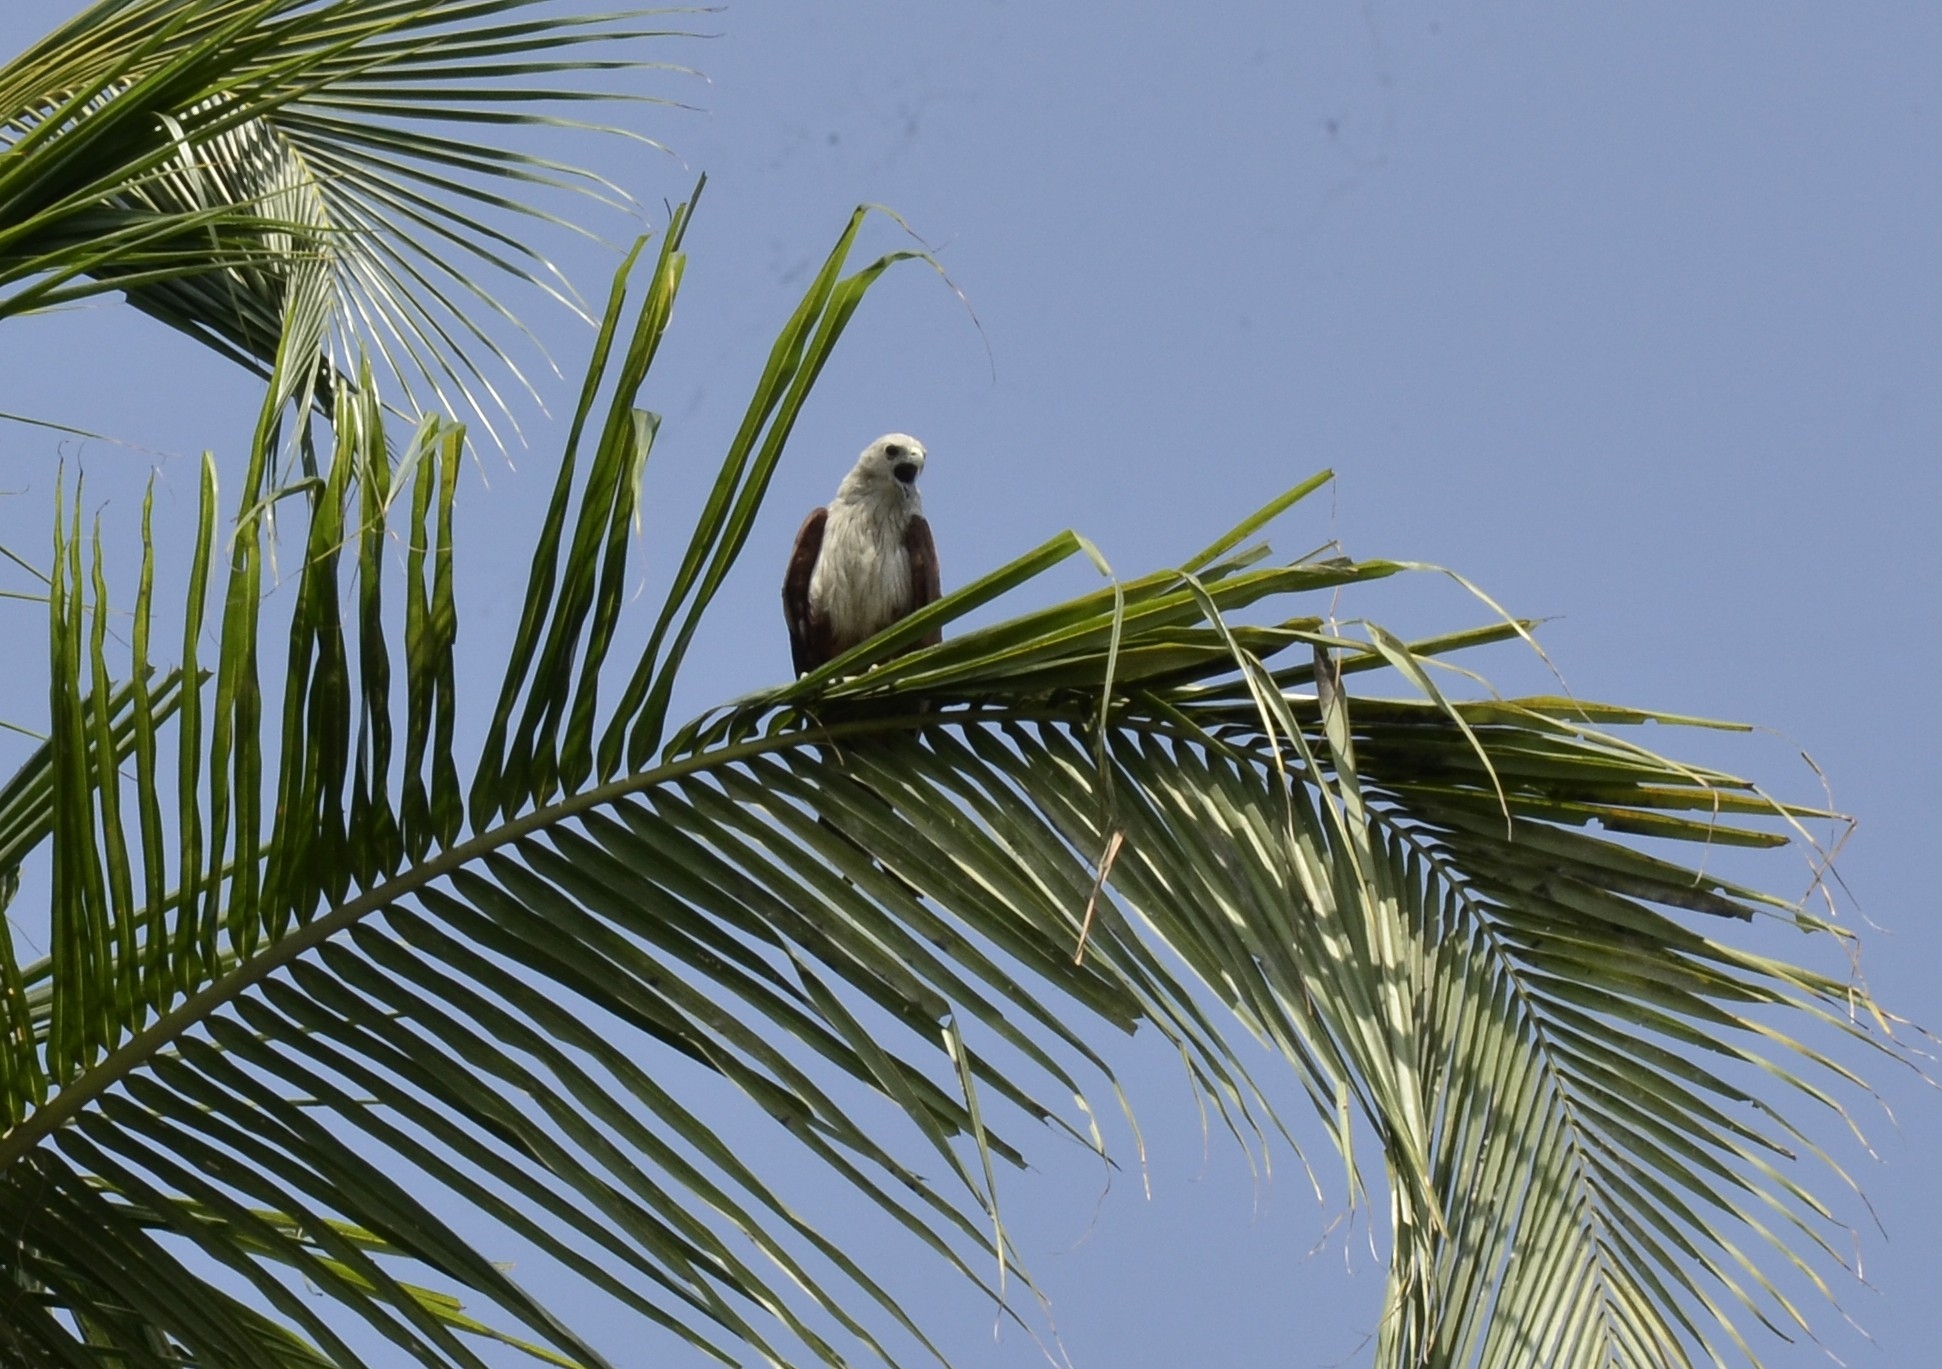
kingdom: Animalia
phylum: Chordata
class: Aves
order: Accipitriformes
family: Accipitridae
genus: Haliastur
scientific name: Haliastur indus
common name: Brahminy kite
